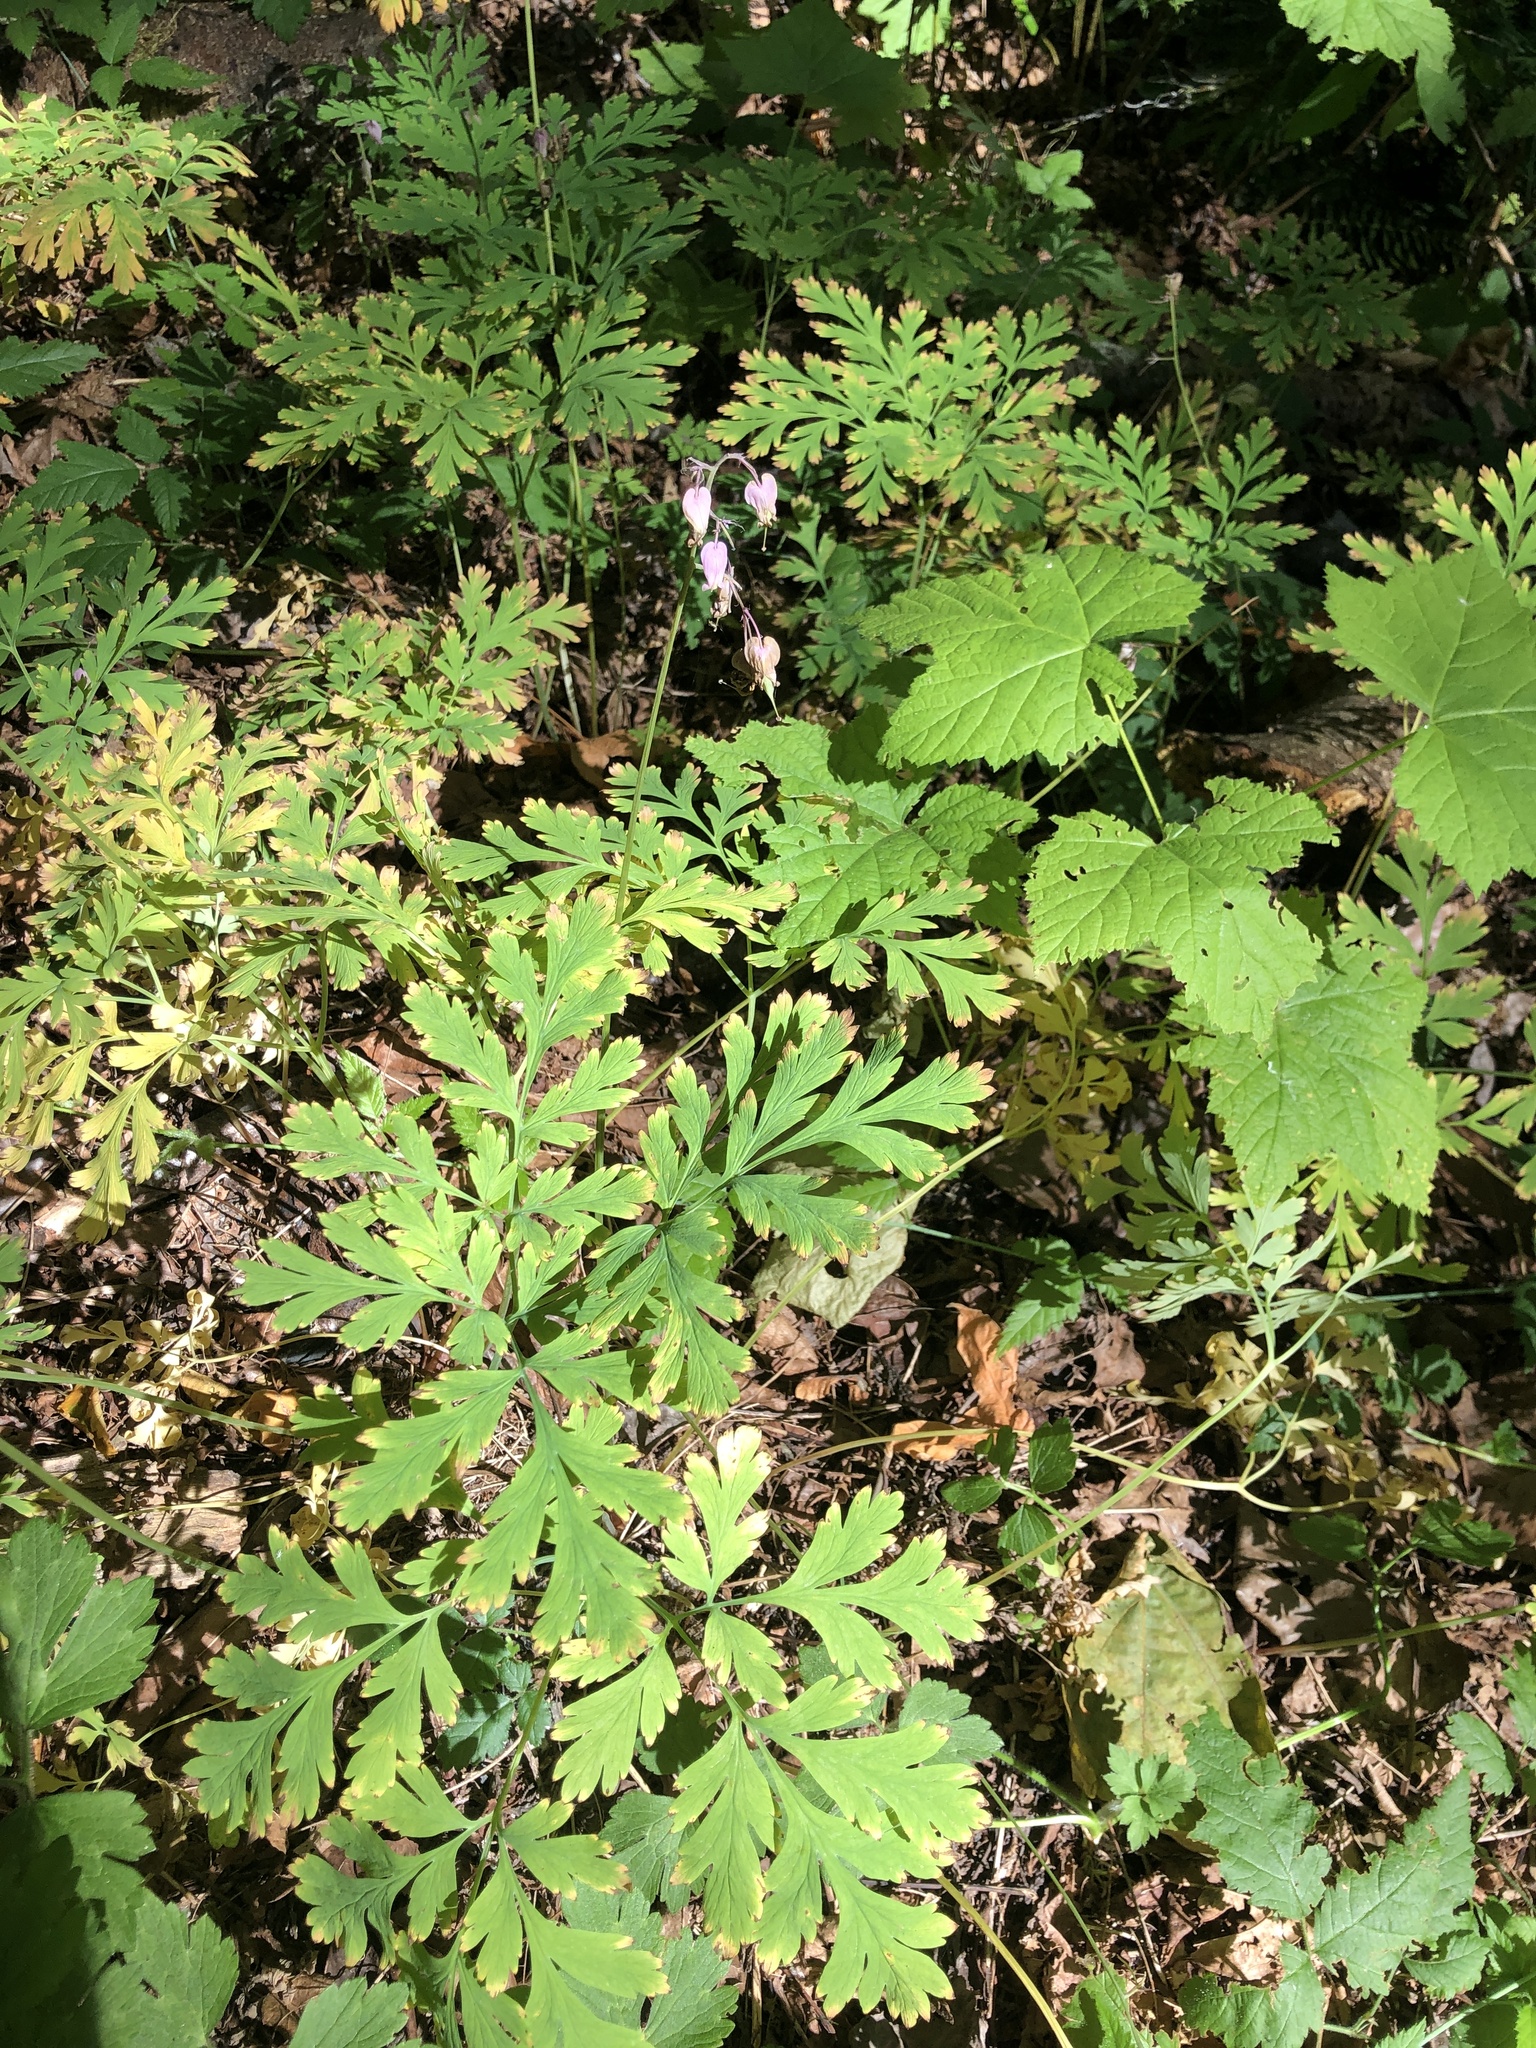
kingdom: Plantae
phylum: Tracheophyta
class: Magnoliopsida
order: Ranunculales
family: Papaveraceae
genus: Dicentra
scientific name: Dicentra formosa
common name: Bleeding-heart
